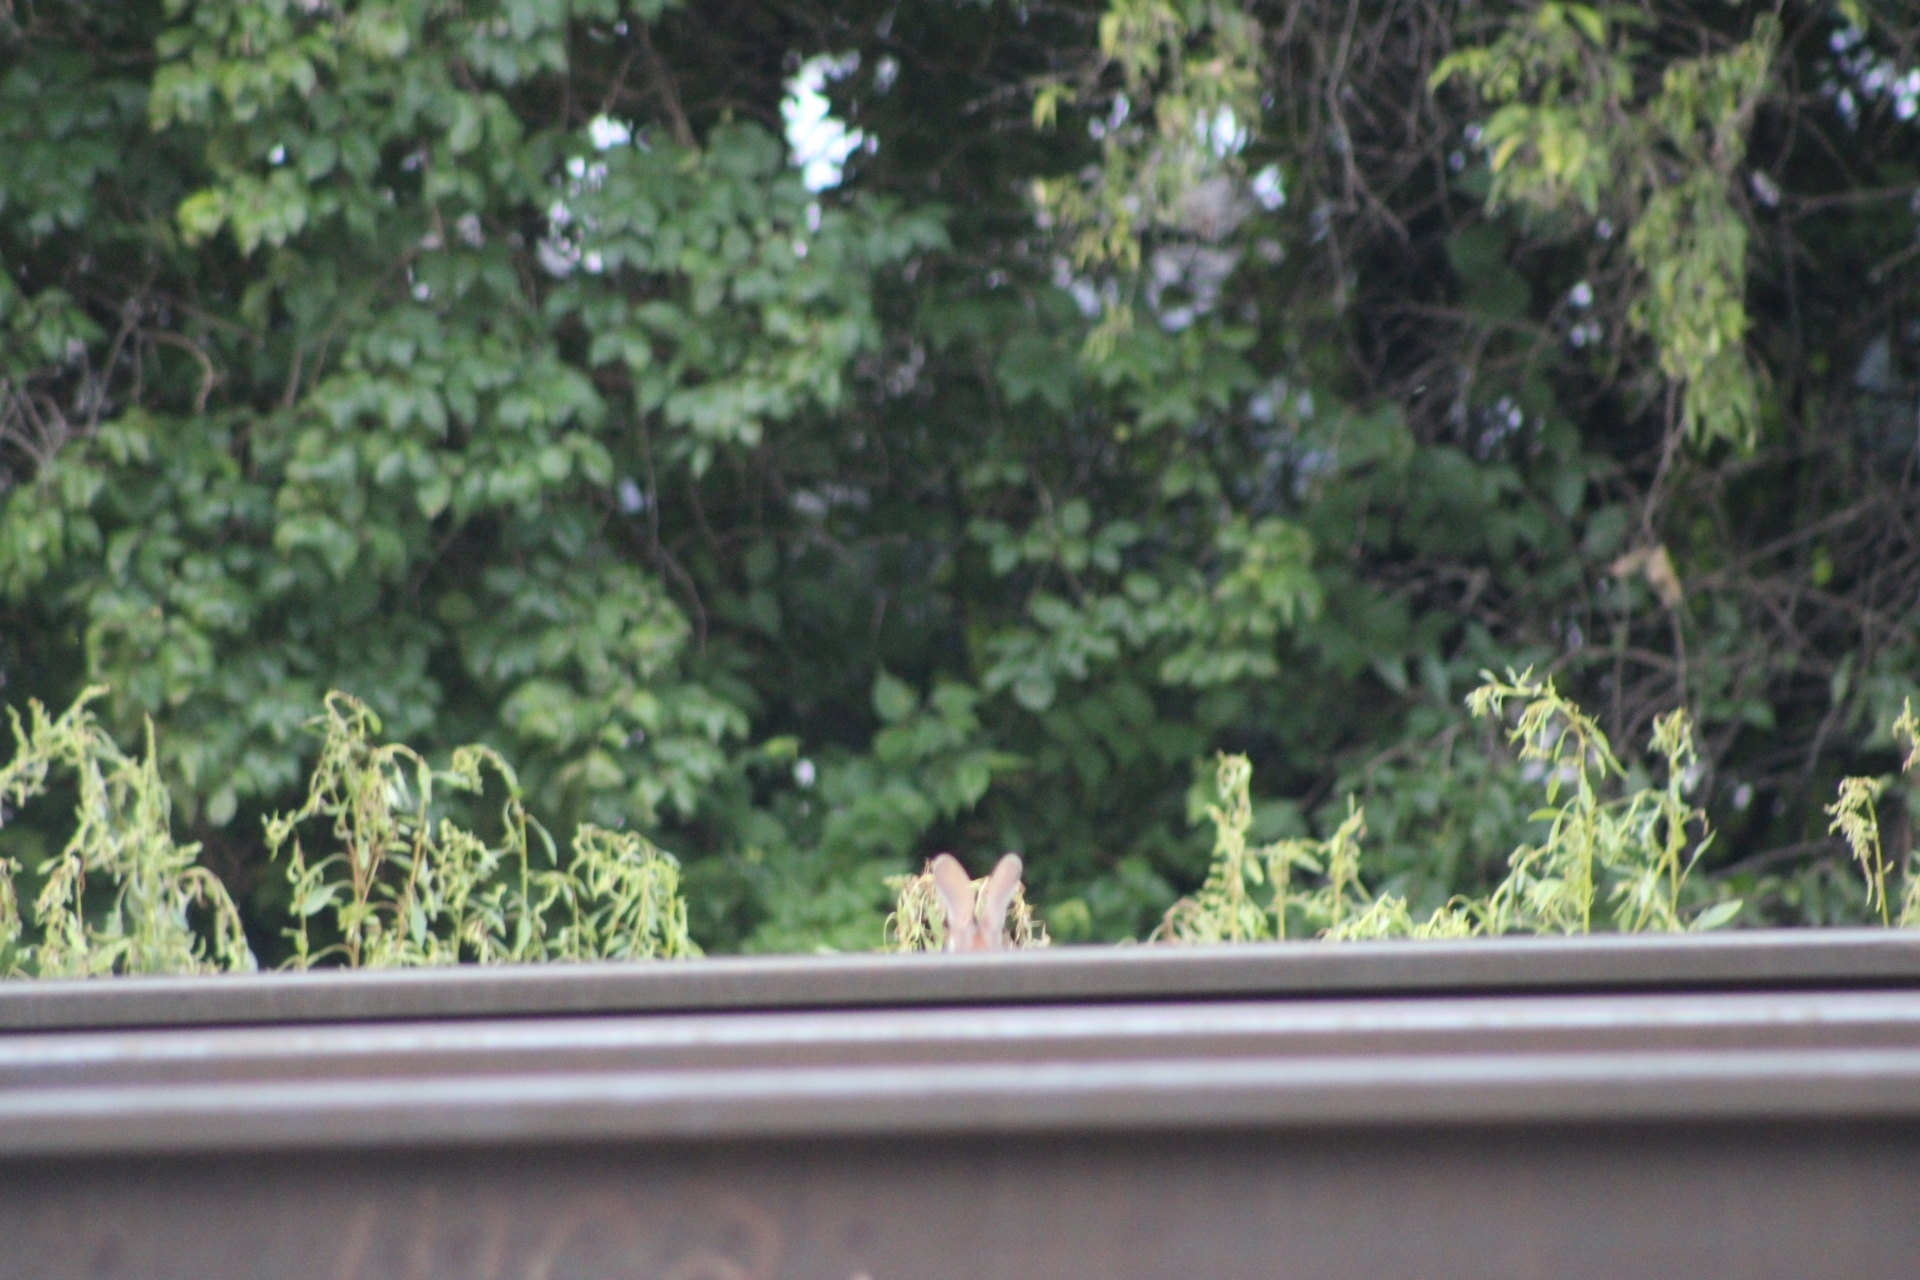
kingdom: Animalia
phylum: Chordata
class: Mammalia
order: Lagomorpha
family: Leporidae
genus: Sylvilagus
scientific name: Sylvilagus floridanus
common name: Eastern cottontail
